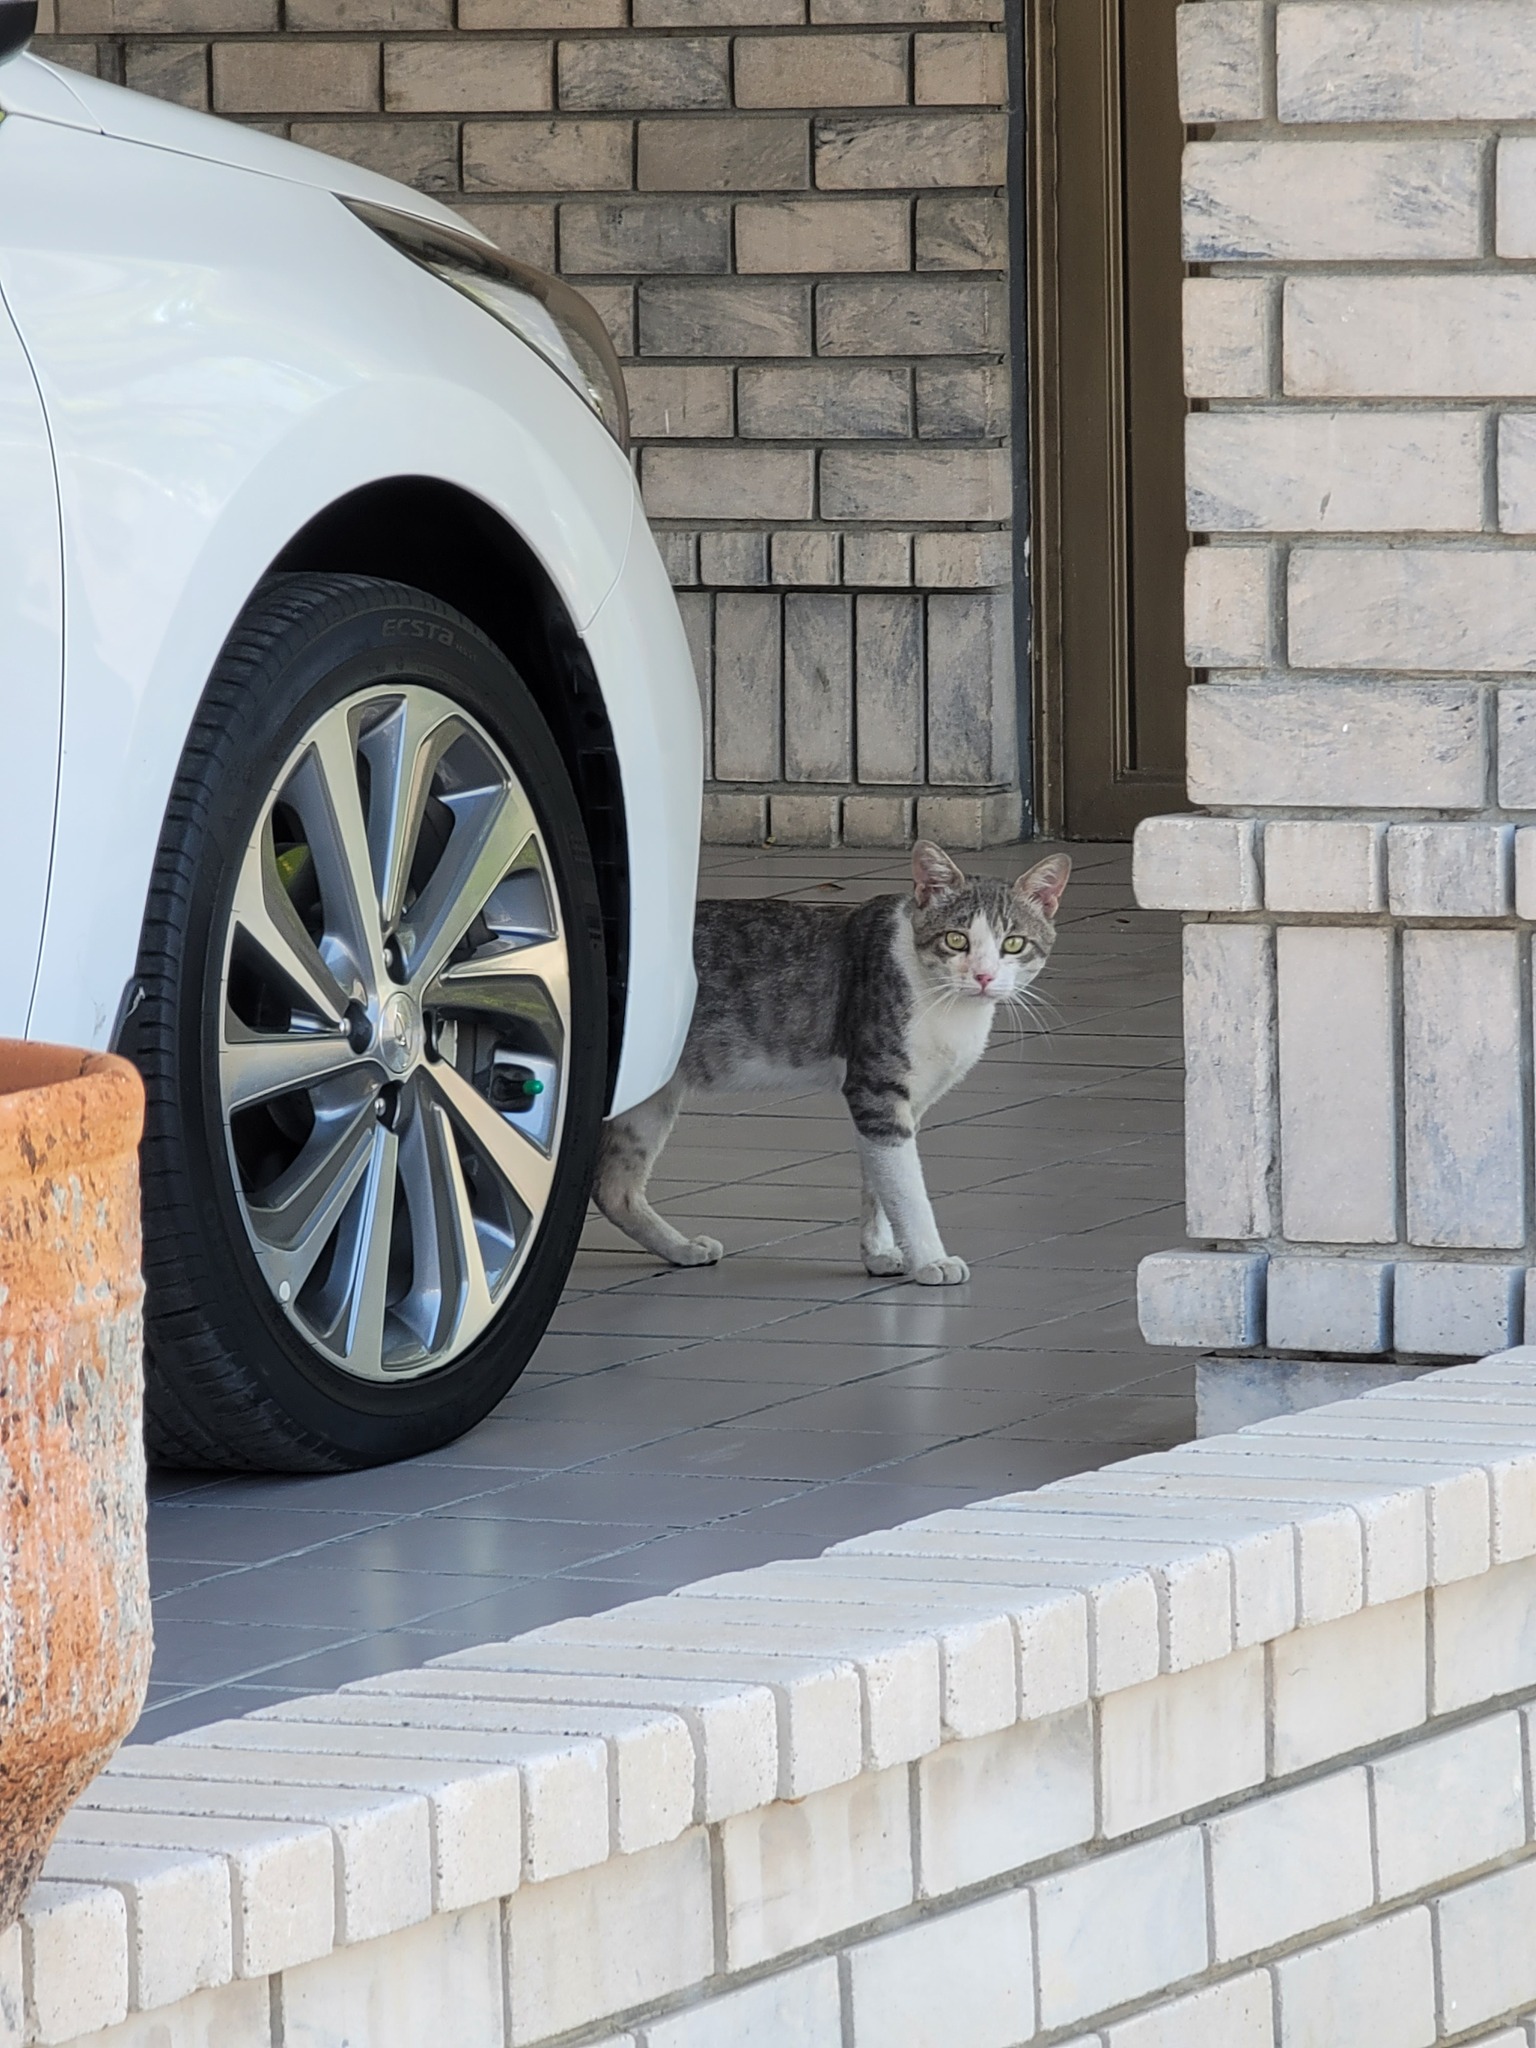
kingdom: Animalia
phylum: Chordata
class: Mammalia
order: Carnivora
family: Felidae
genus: Felis
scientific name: Felis catus
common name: Domestic cat
